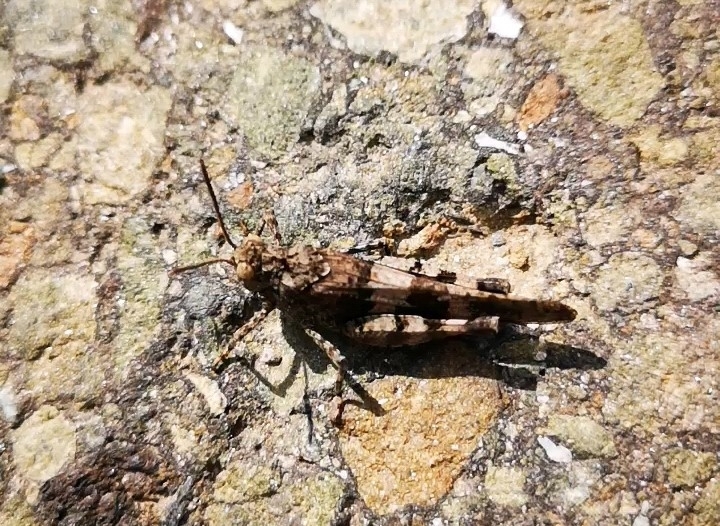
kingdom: Animalia
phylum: Arthropoda
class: Insecta
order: Orthoptera
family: Acrididae
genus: Oedipoda
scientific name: Oedipoda caerulescens
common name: Blue-winged grasshopper
